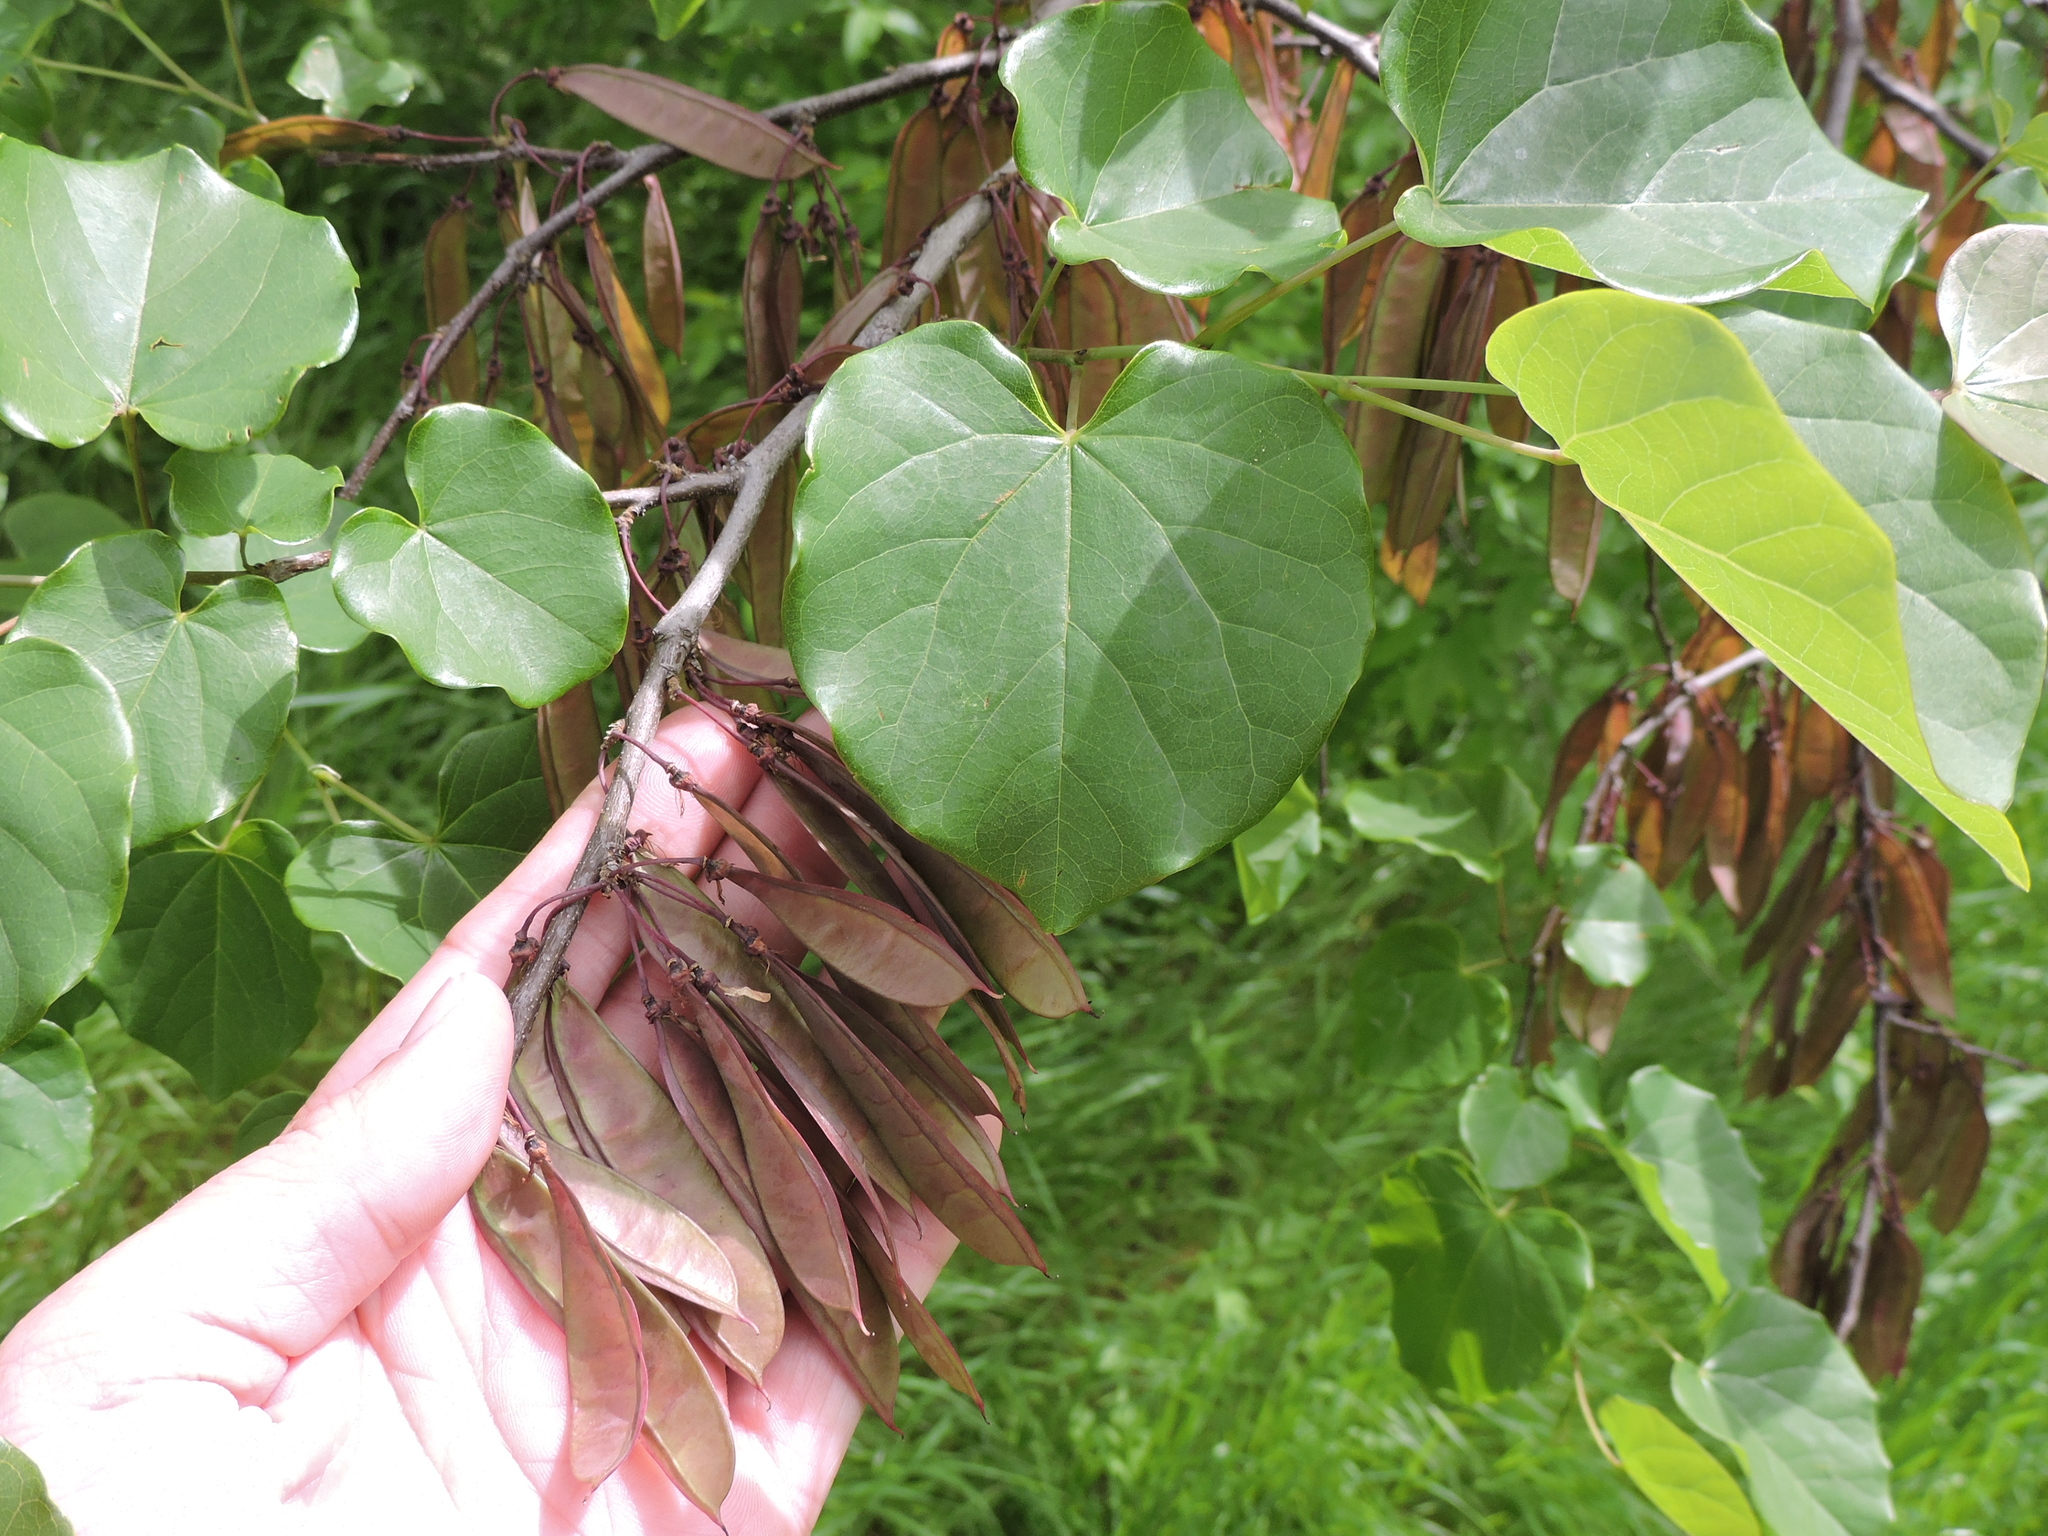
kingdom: Plantae
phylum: Tracheophyta
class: Magnoliopsida
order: Fabales
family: Fabaceae
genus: Cercis
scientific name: Cercis canadensis
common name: Eastern redbud
